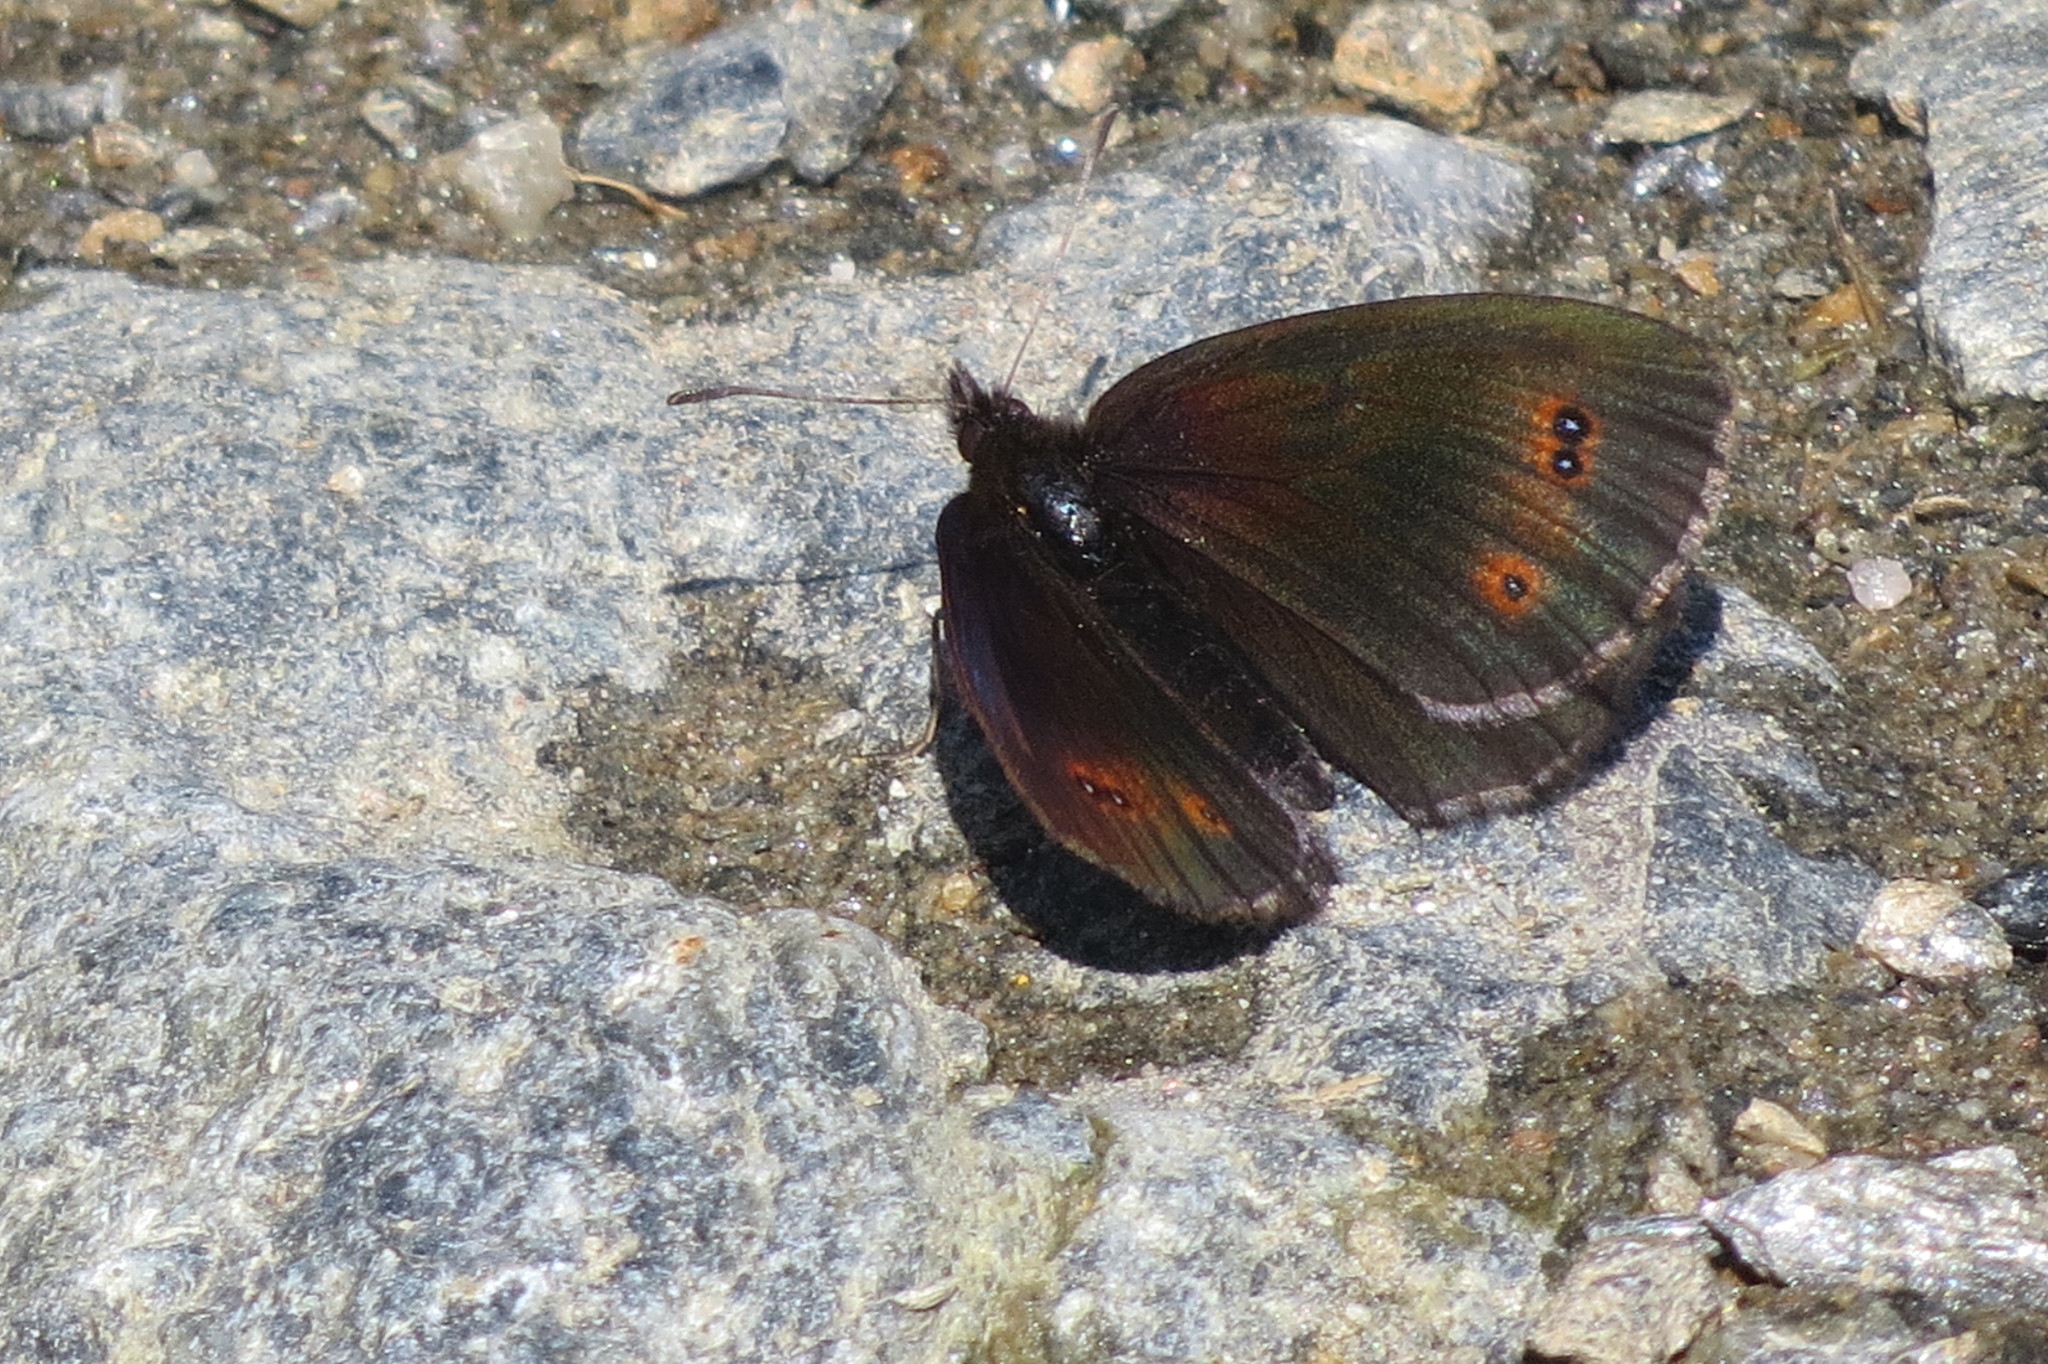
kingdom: Animalia
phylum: Arthropoda
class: Insecta
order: Lepidoptera
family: Nymphalidae
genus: Erebia
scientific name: Erebia pronoe
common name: Water ringlet
